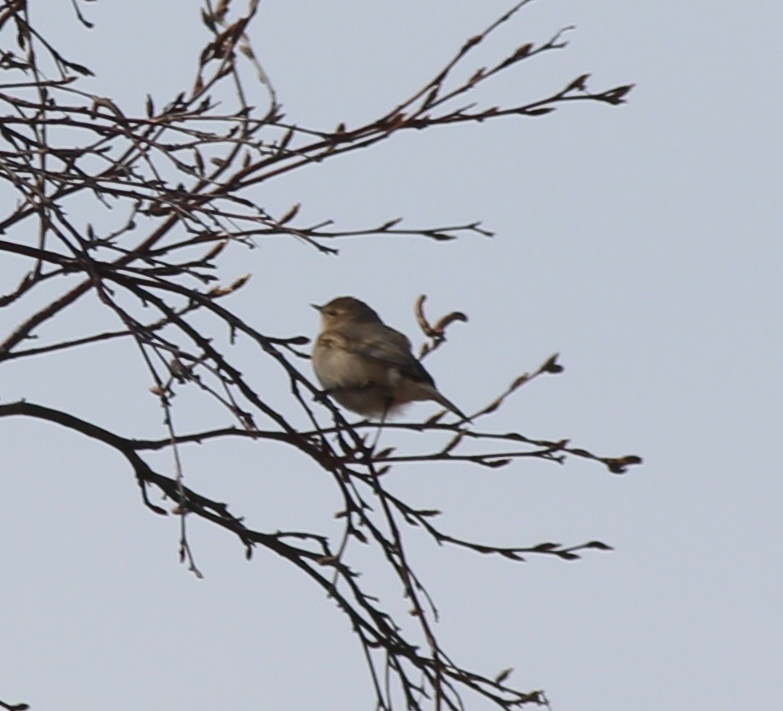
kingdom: Animalia
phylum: Chordata
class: Aves
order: Passeriformes
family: Phylloscopidae
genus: Phylloscopus
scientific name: Phylloscopus collybita
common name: Common chiffchaff
